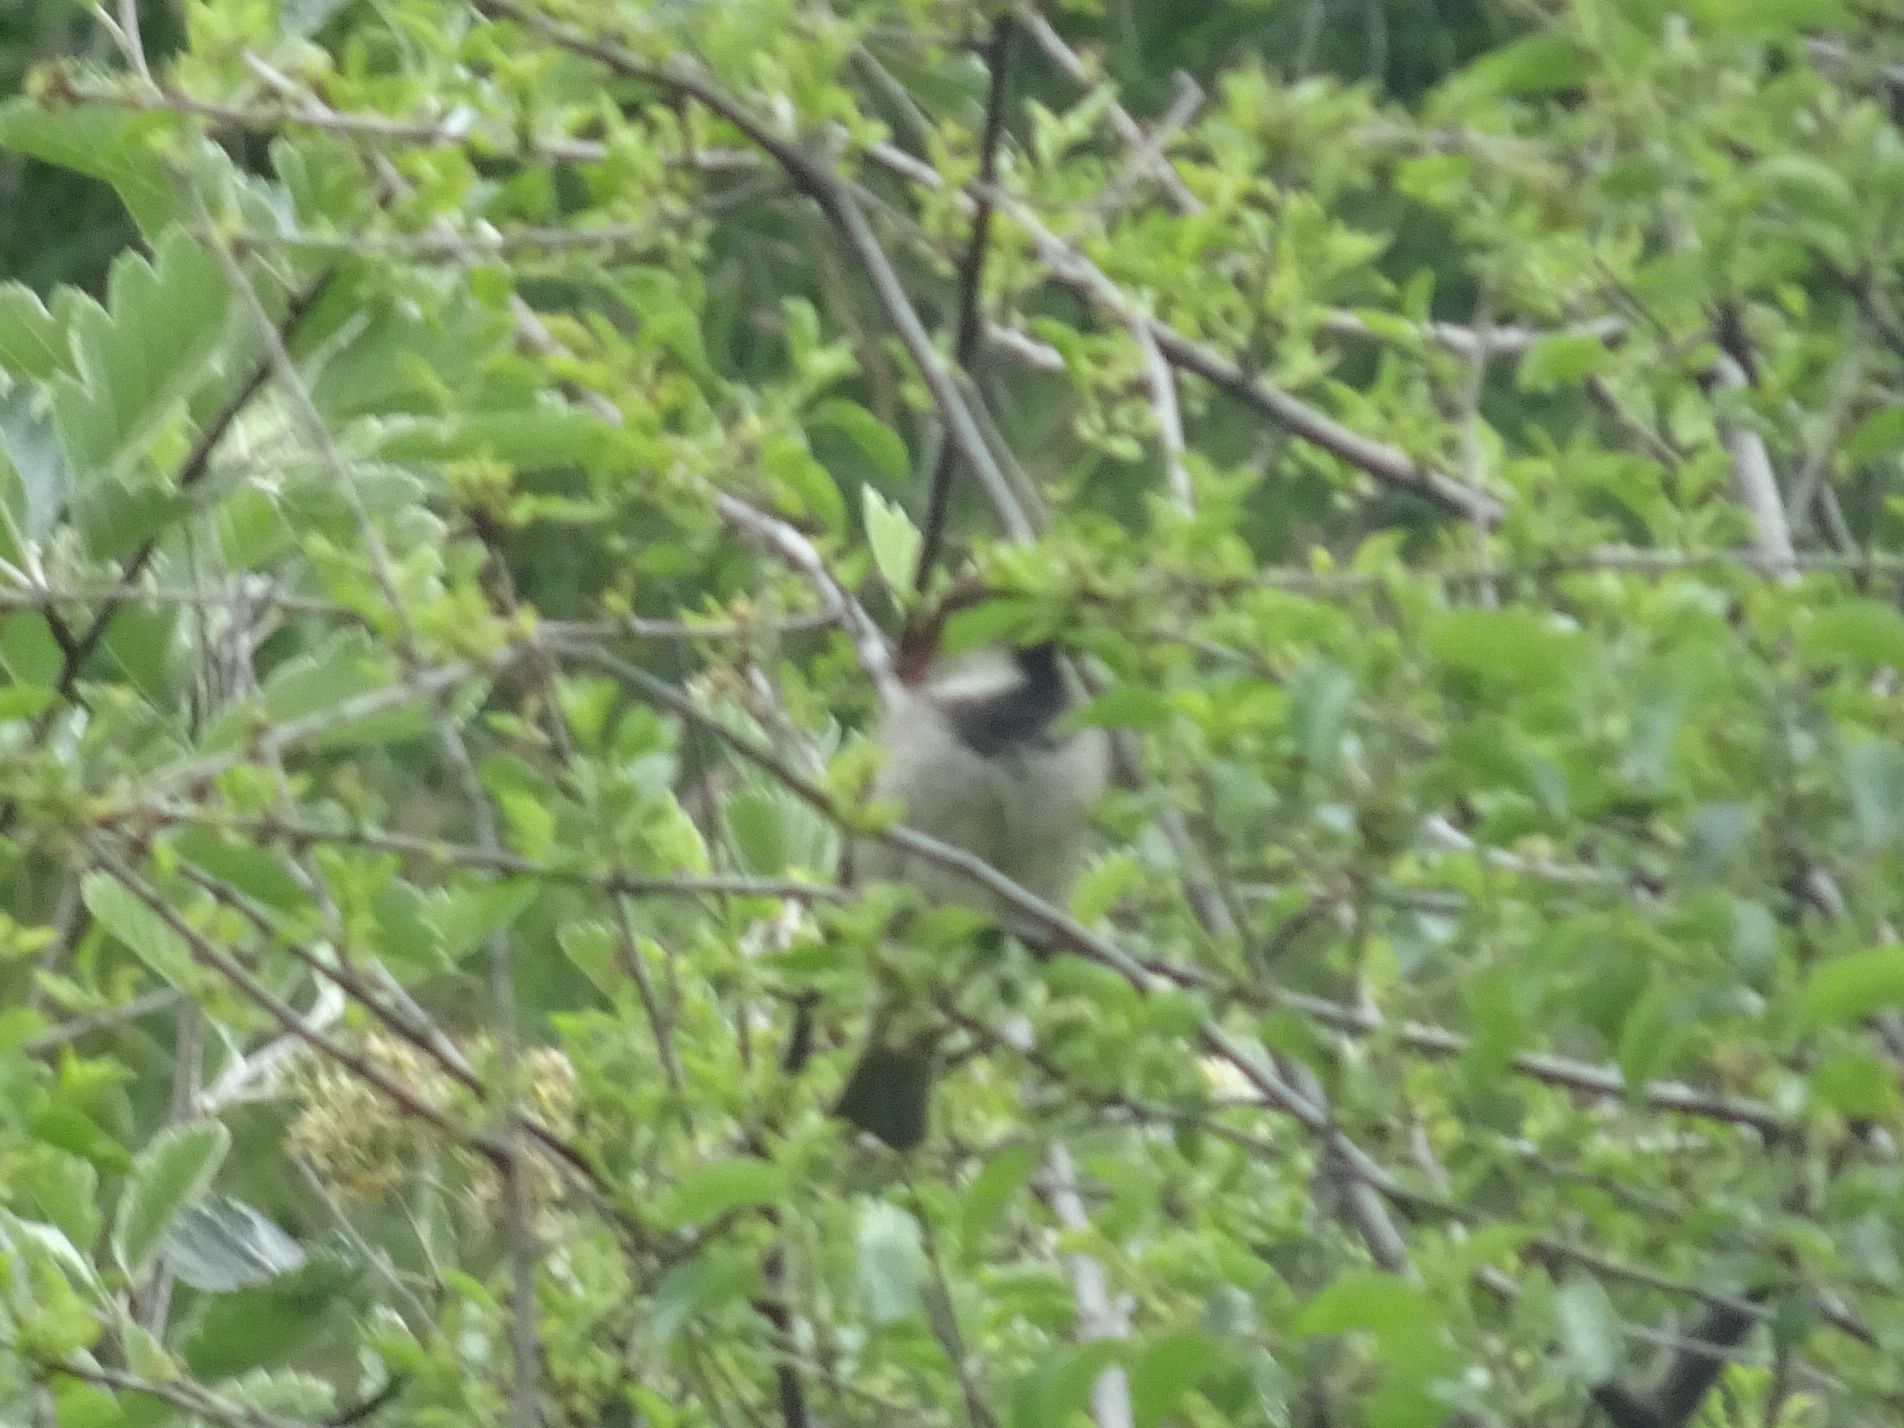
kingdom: Animalia
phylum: Chordata
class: Aves
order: Passeriformes
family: Passeridae
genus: Passer
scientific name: Passer domesticus
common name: House sparrow
